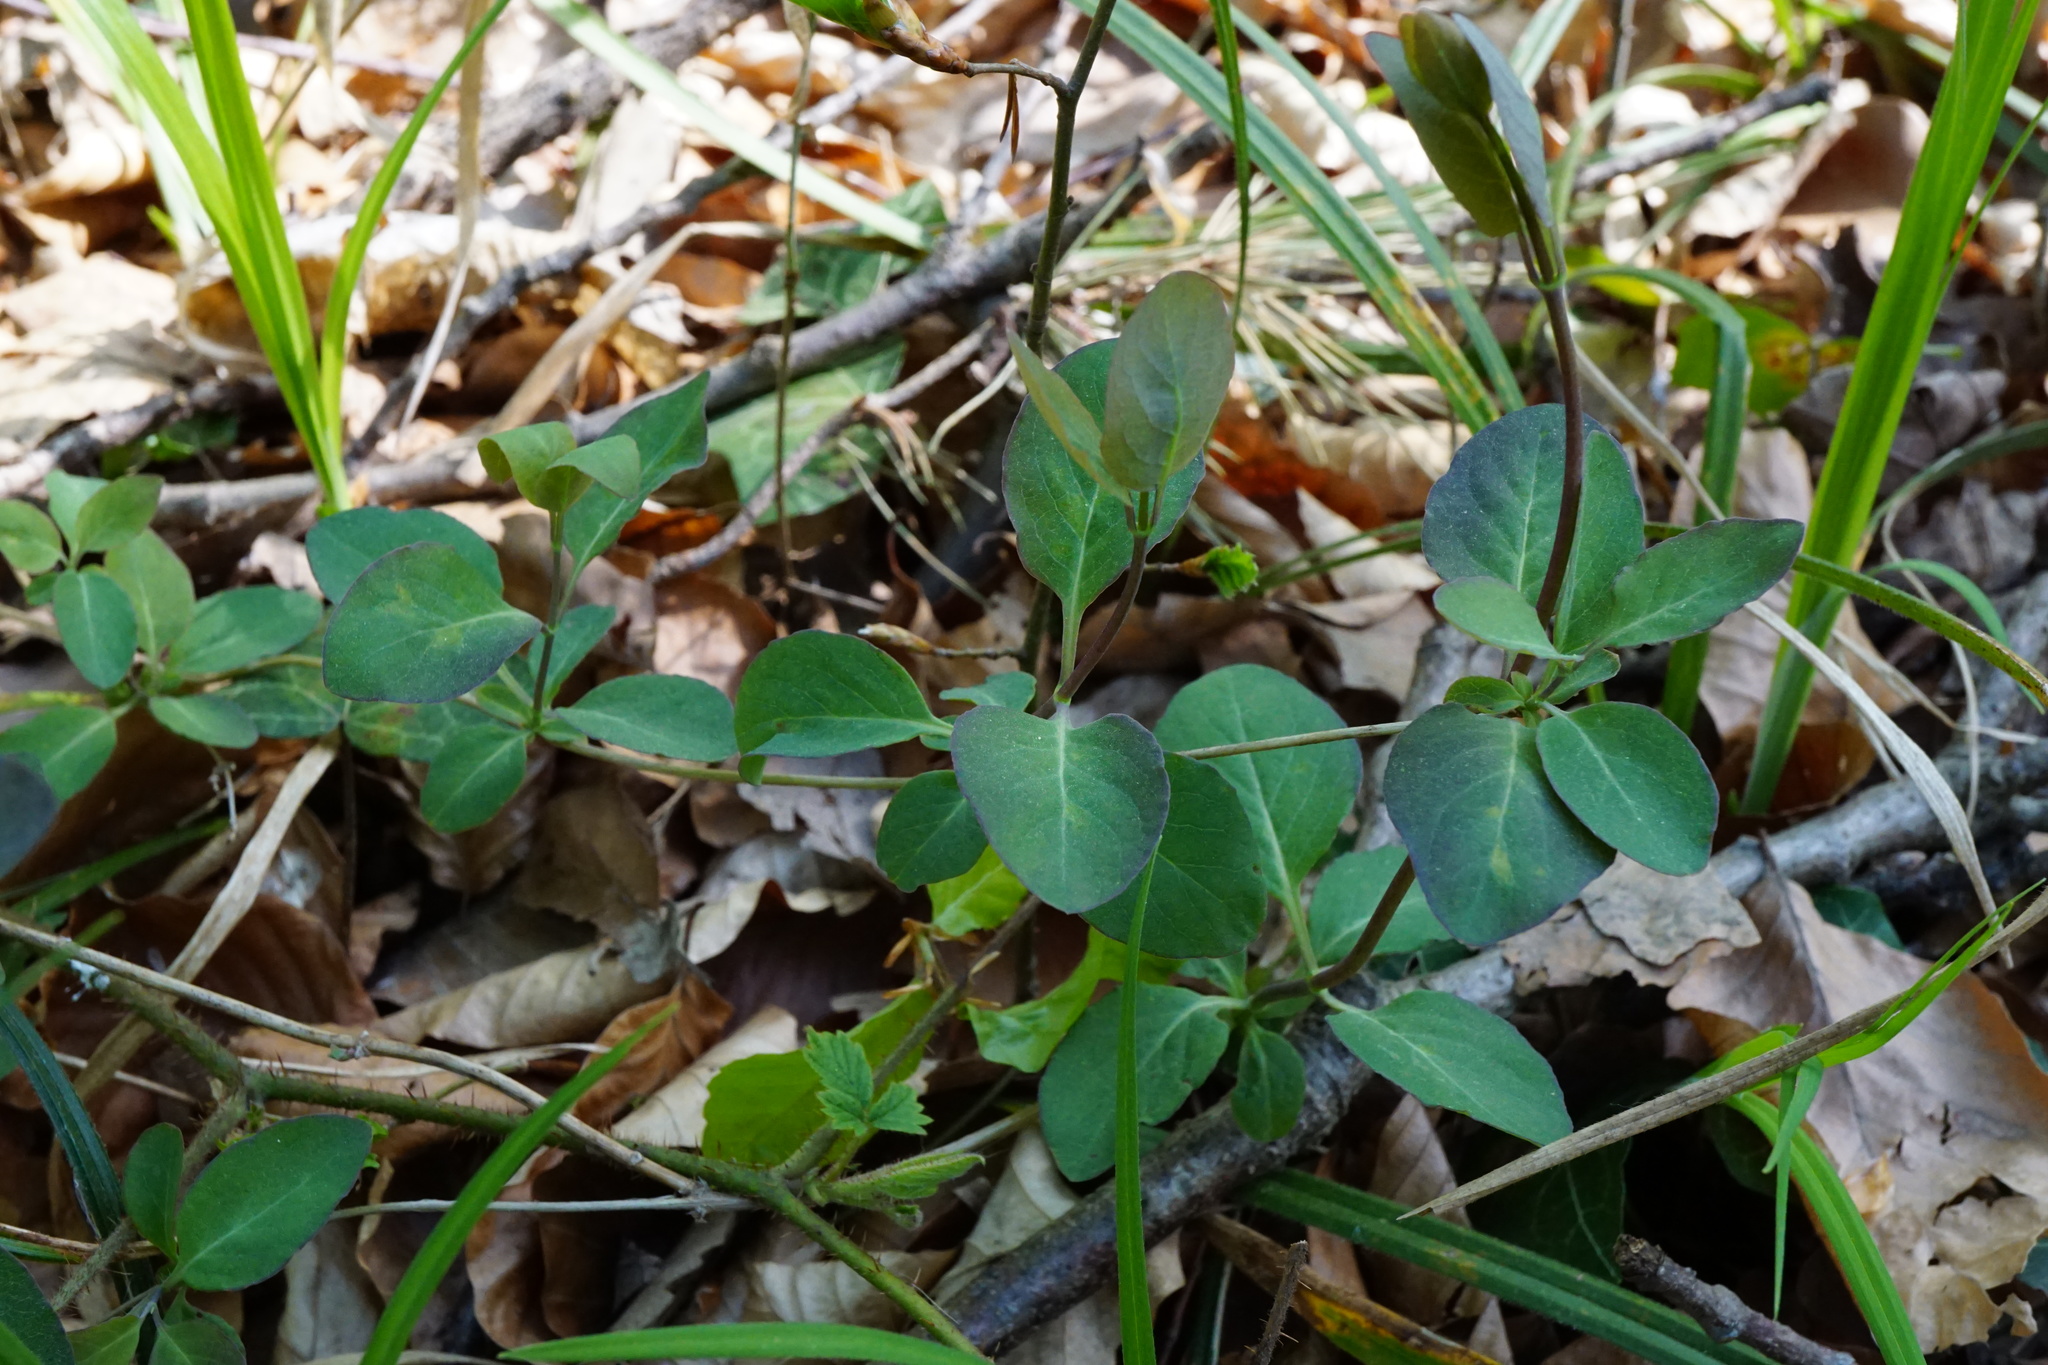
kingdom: Plantae
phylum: Tracheophyta
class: Magnoliopsida
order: Dipsacales
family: Caprifoliaceae
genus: Lonicera
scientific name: Lonicera caprifolium
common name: Perfoliate honeysuckle
